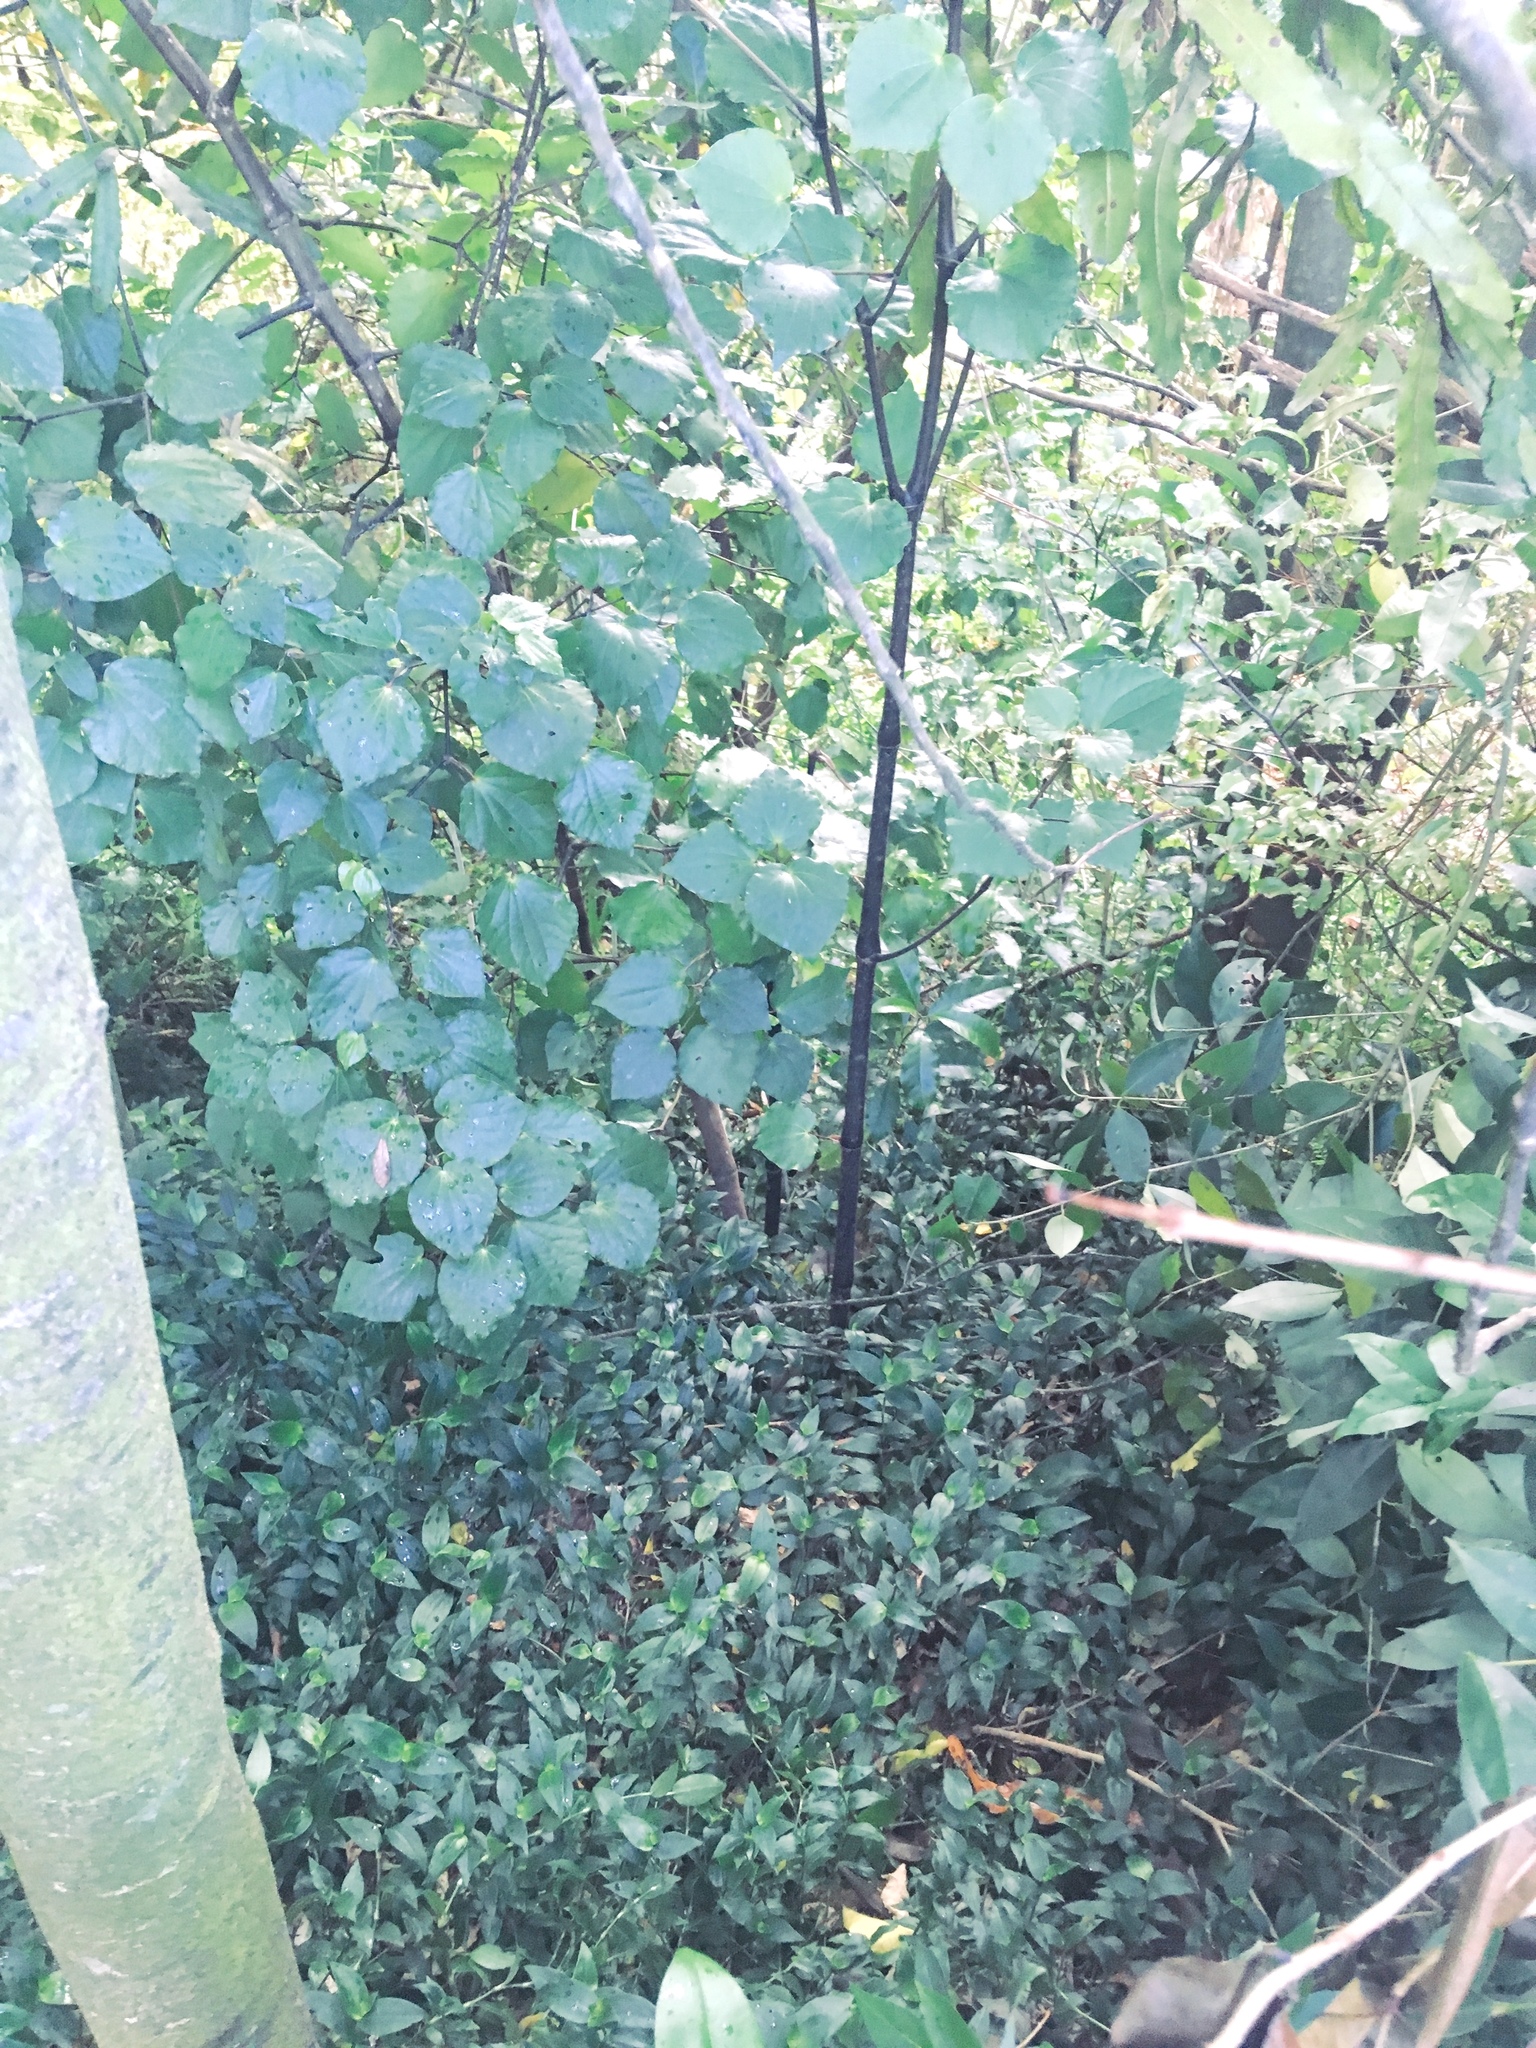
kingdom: Plantae
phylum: Tracheophyta
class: Magnoliopsida
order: Piperales
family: Piperaceae
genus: Macropiper
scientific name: Macropiper excelsum
